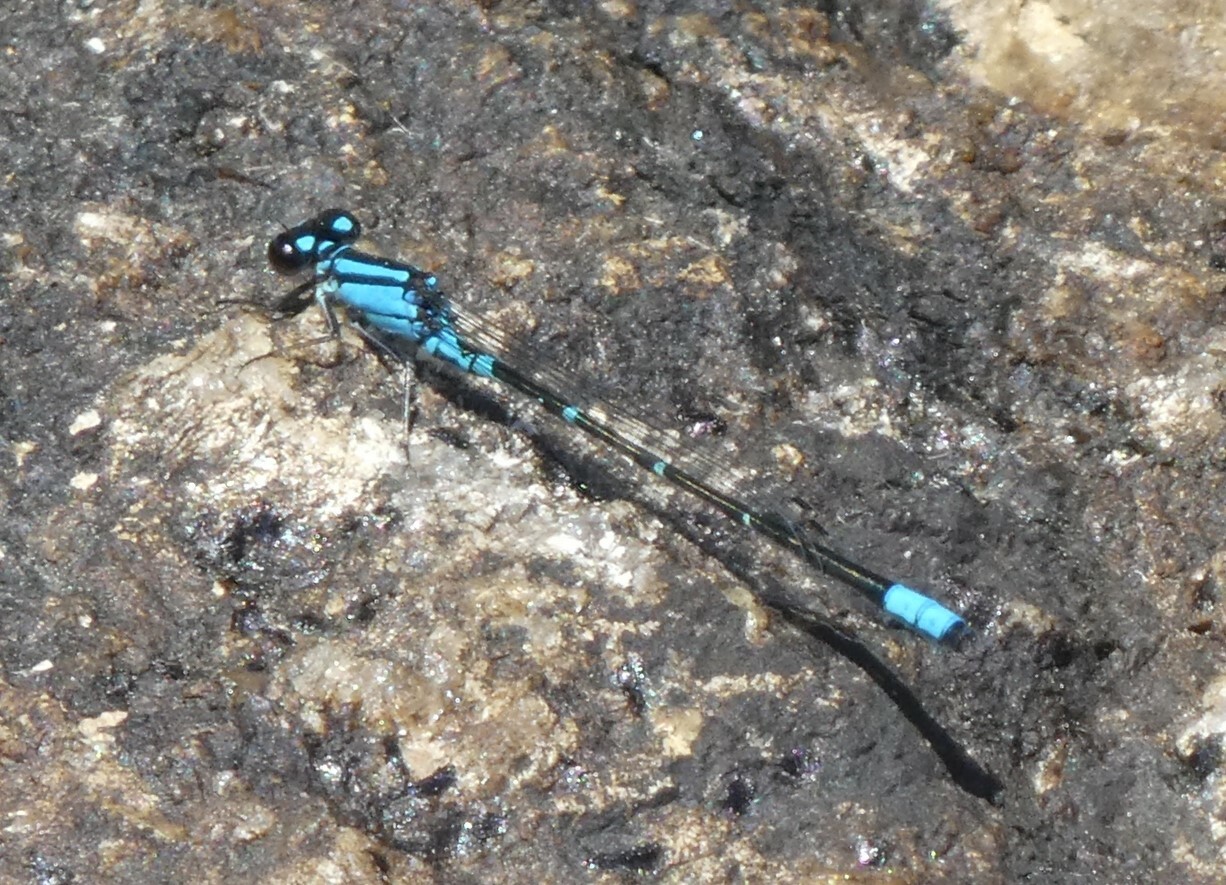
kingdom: Animalia
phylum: Arthropoda
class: Insecta
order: Odonata
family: Coenagrionidae
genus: Enallagma
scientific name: Enallagma geminatum
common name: Skimming bluet
